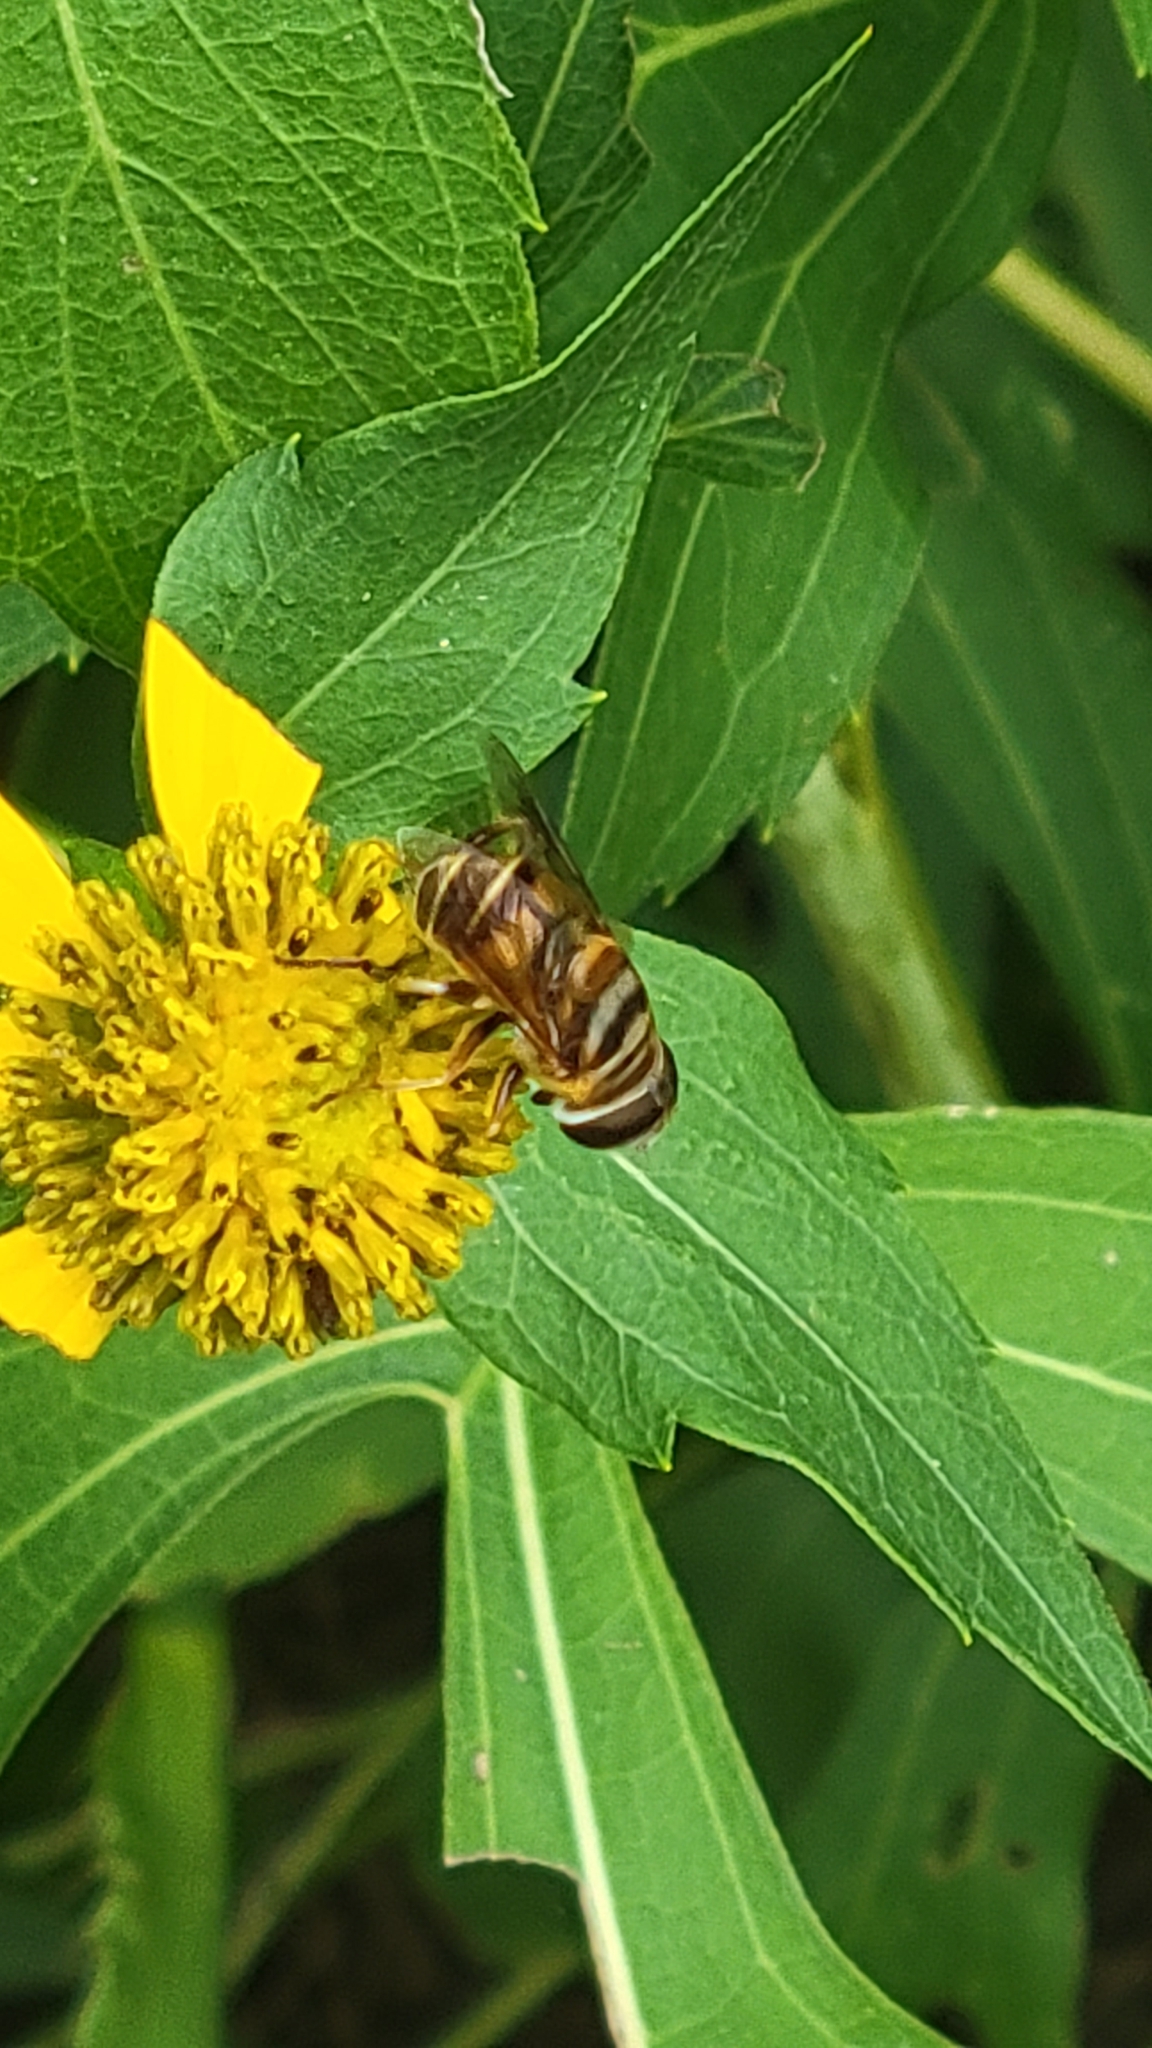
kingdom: Animalia
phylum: Arthropoda
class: Insecta
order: Diptera
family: Syrphidae
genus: Palpada
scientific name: Palpada vinetorum
